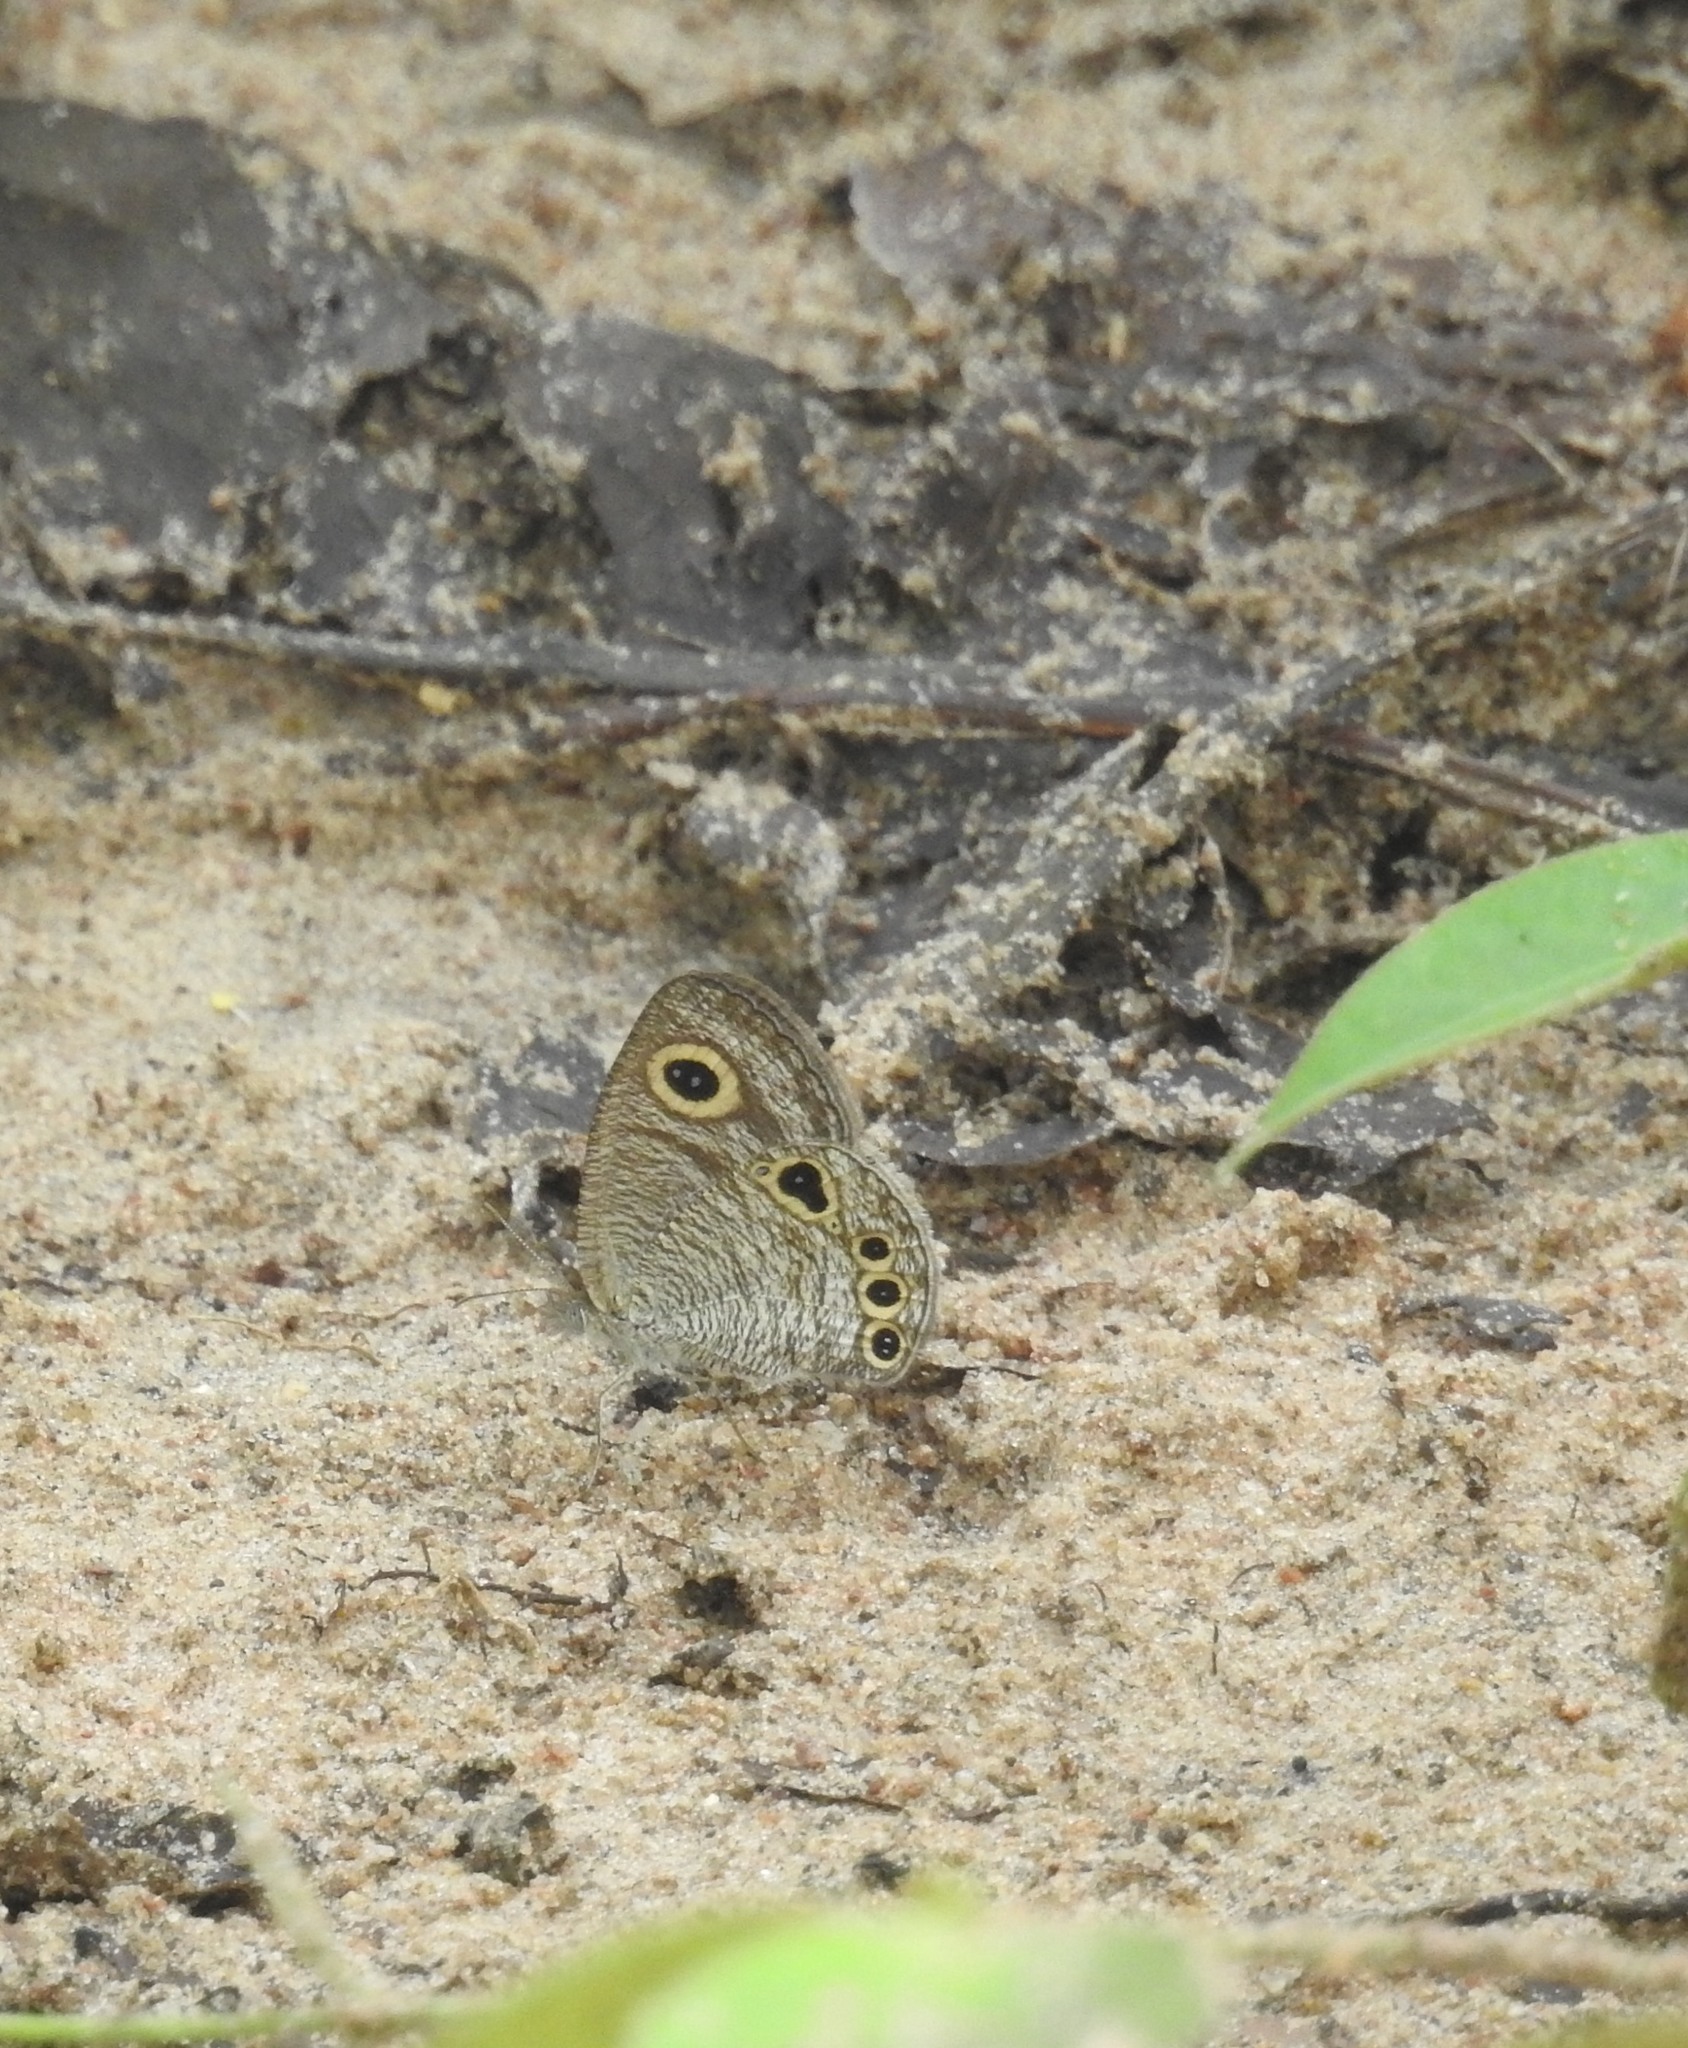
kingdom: Animalia
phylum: Arthropoda
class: Insecta
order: Lepidoptera
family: Nymphalidae
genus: Ypthima
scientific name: Ypthima huebneri
